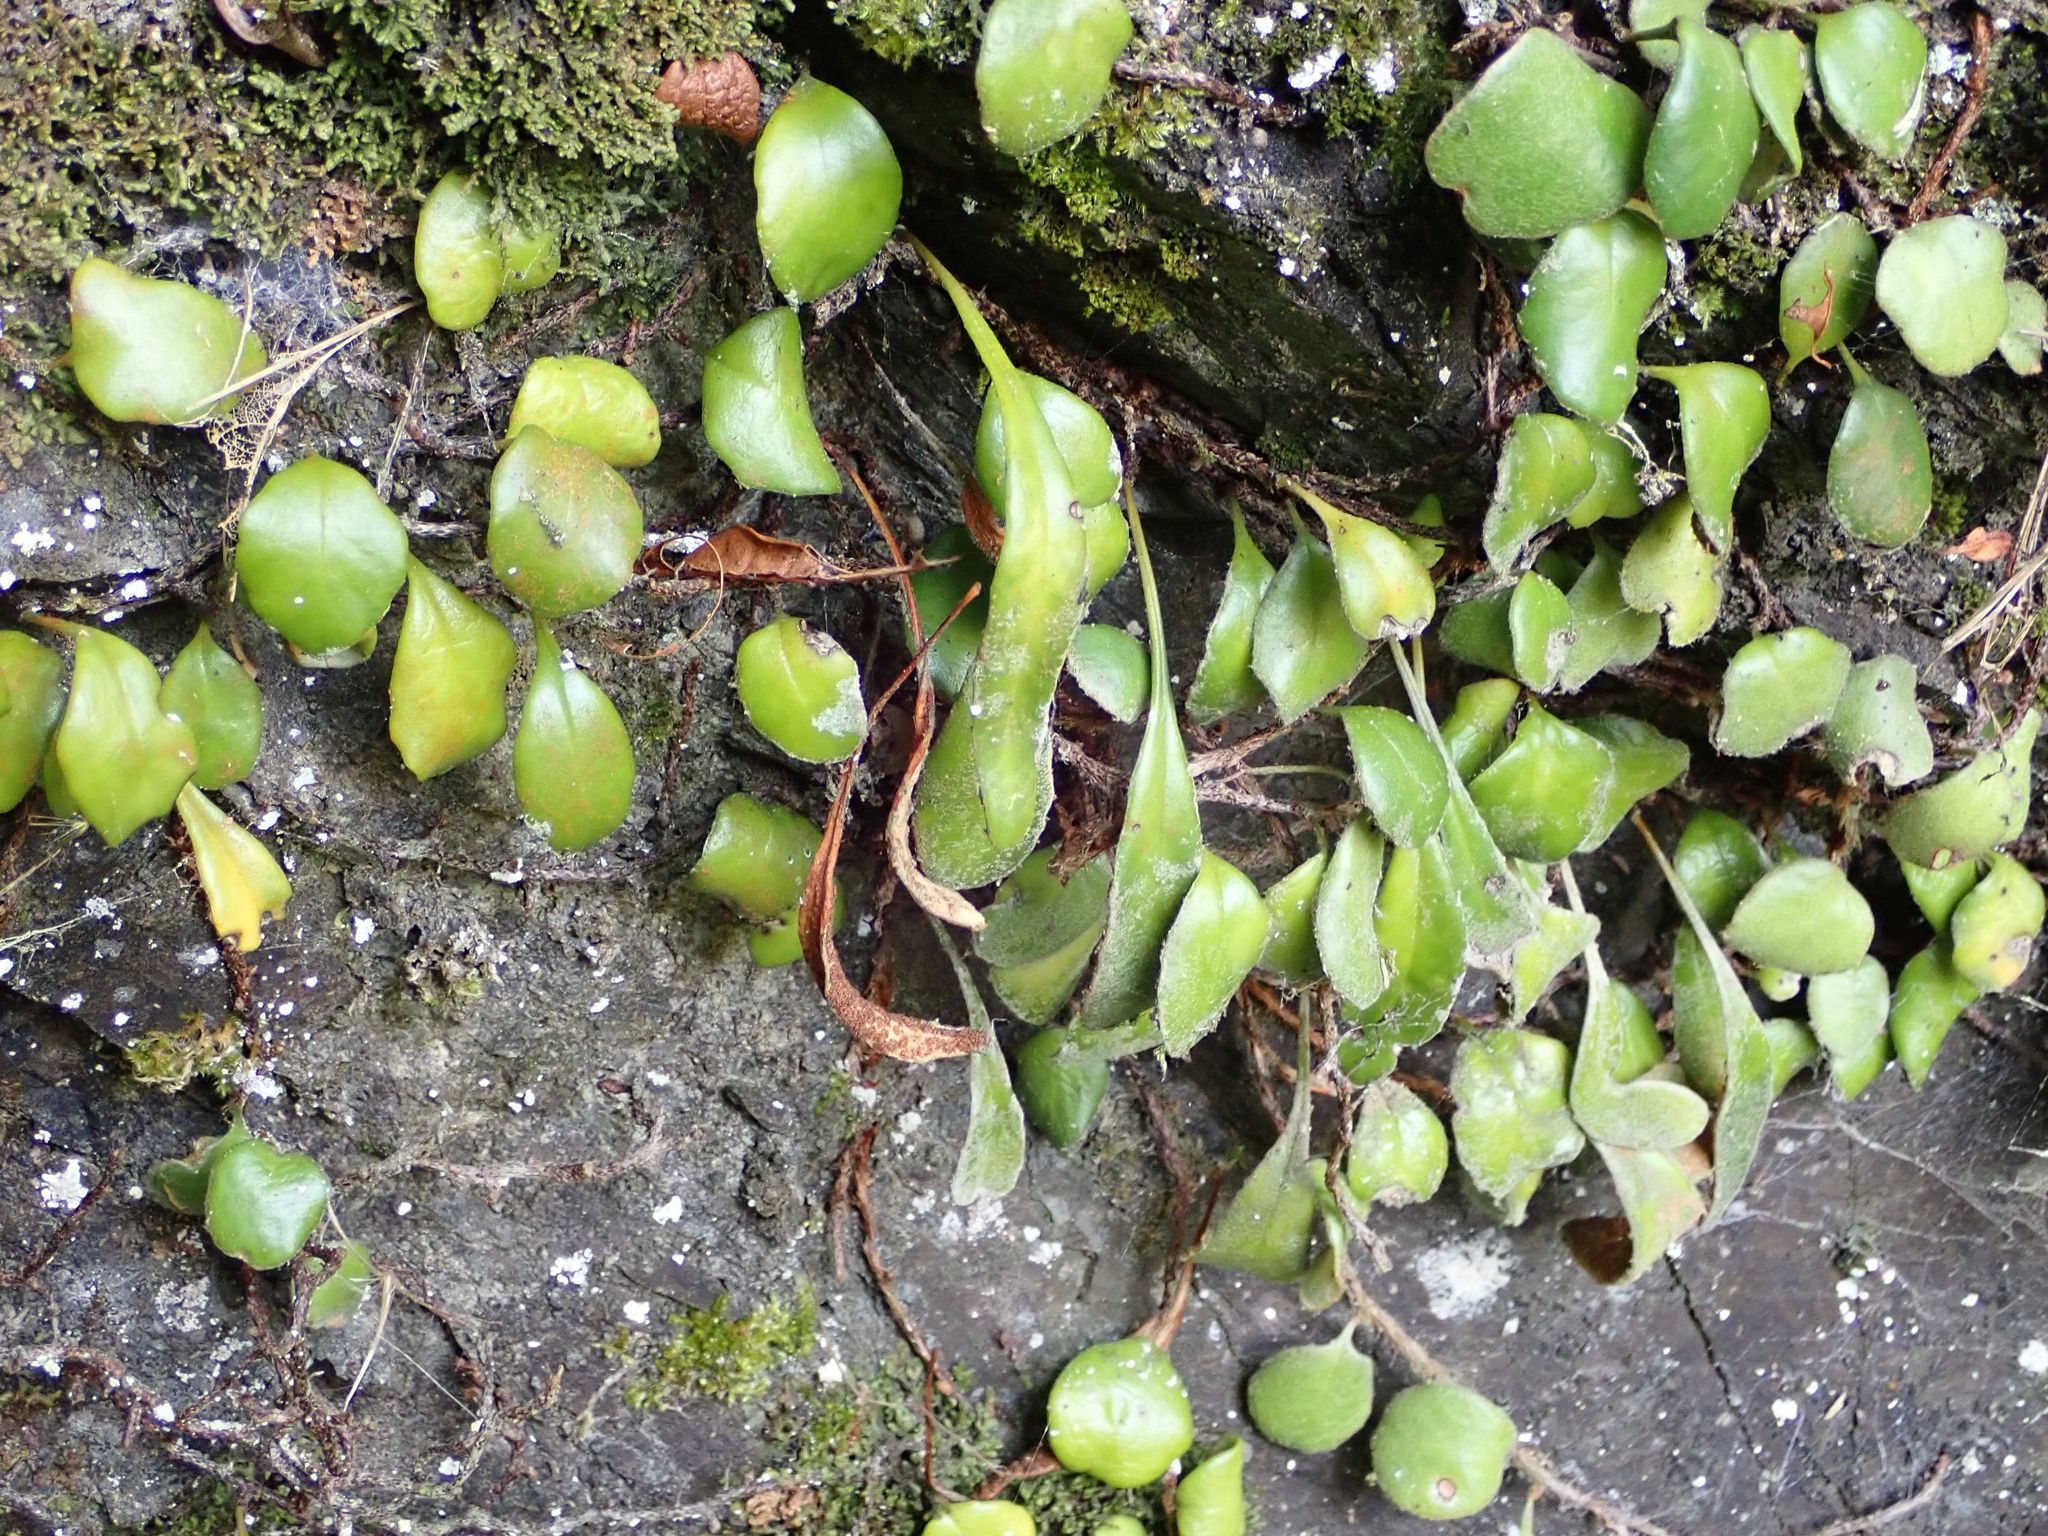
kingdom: Plantae
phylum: Tracheophyta
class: Polypodiopsida
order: Polypodiales
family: Polypodiaceae
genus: Pyrrosia
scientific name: Pyrrosia eleagnifolia
